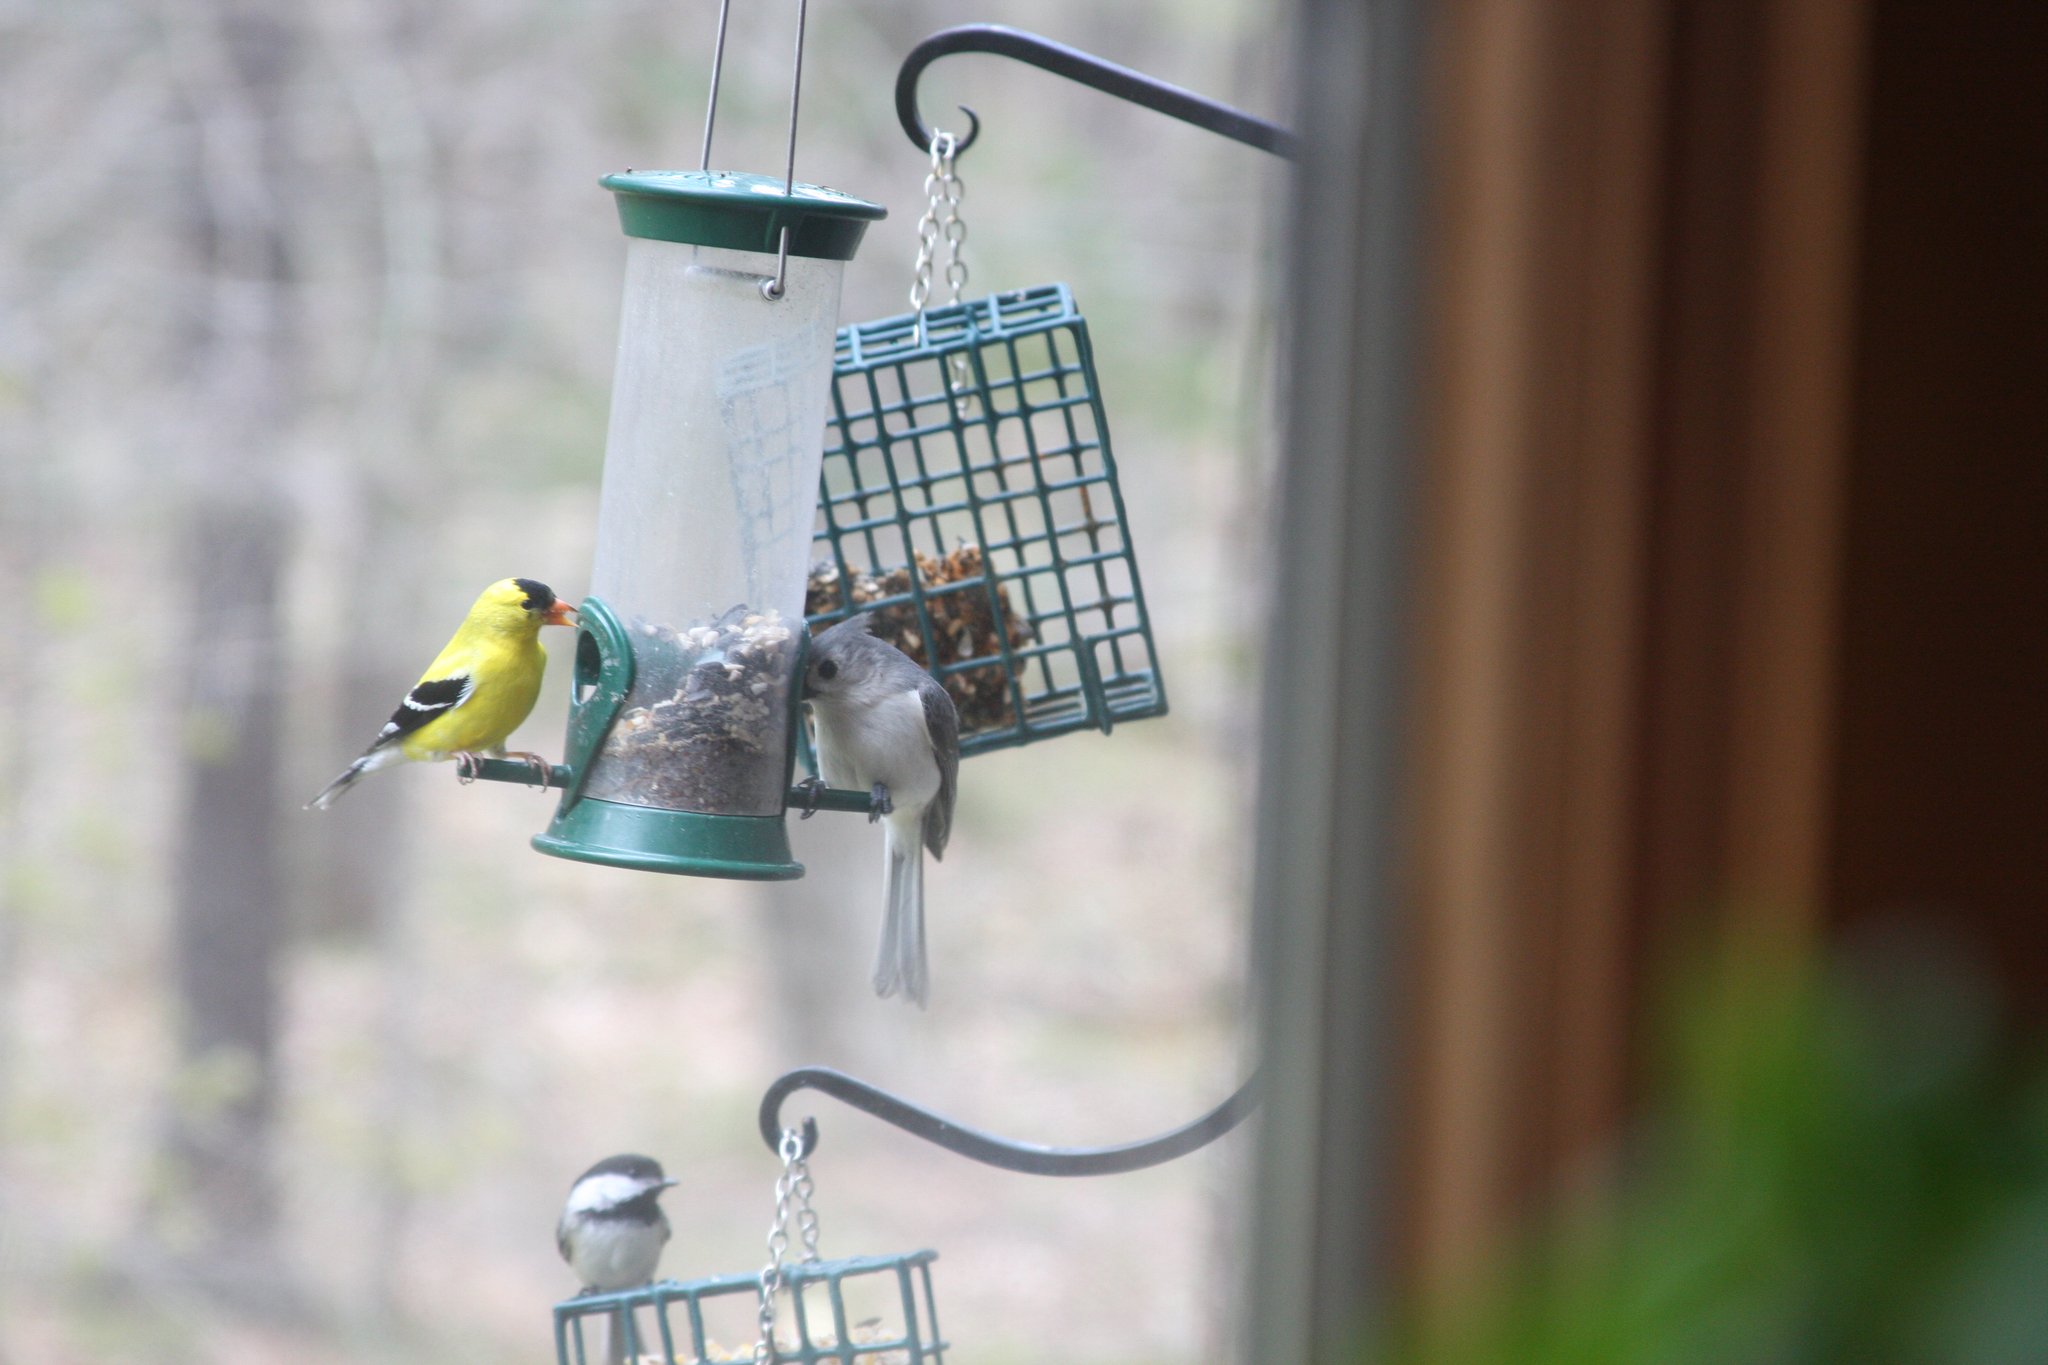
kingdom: Animalia
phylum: Chordata
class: Aves
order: Passeriformes
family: Fringillidae
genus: Spinus
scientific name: Spinus tristis
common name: American goldfinch
